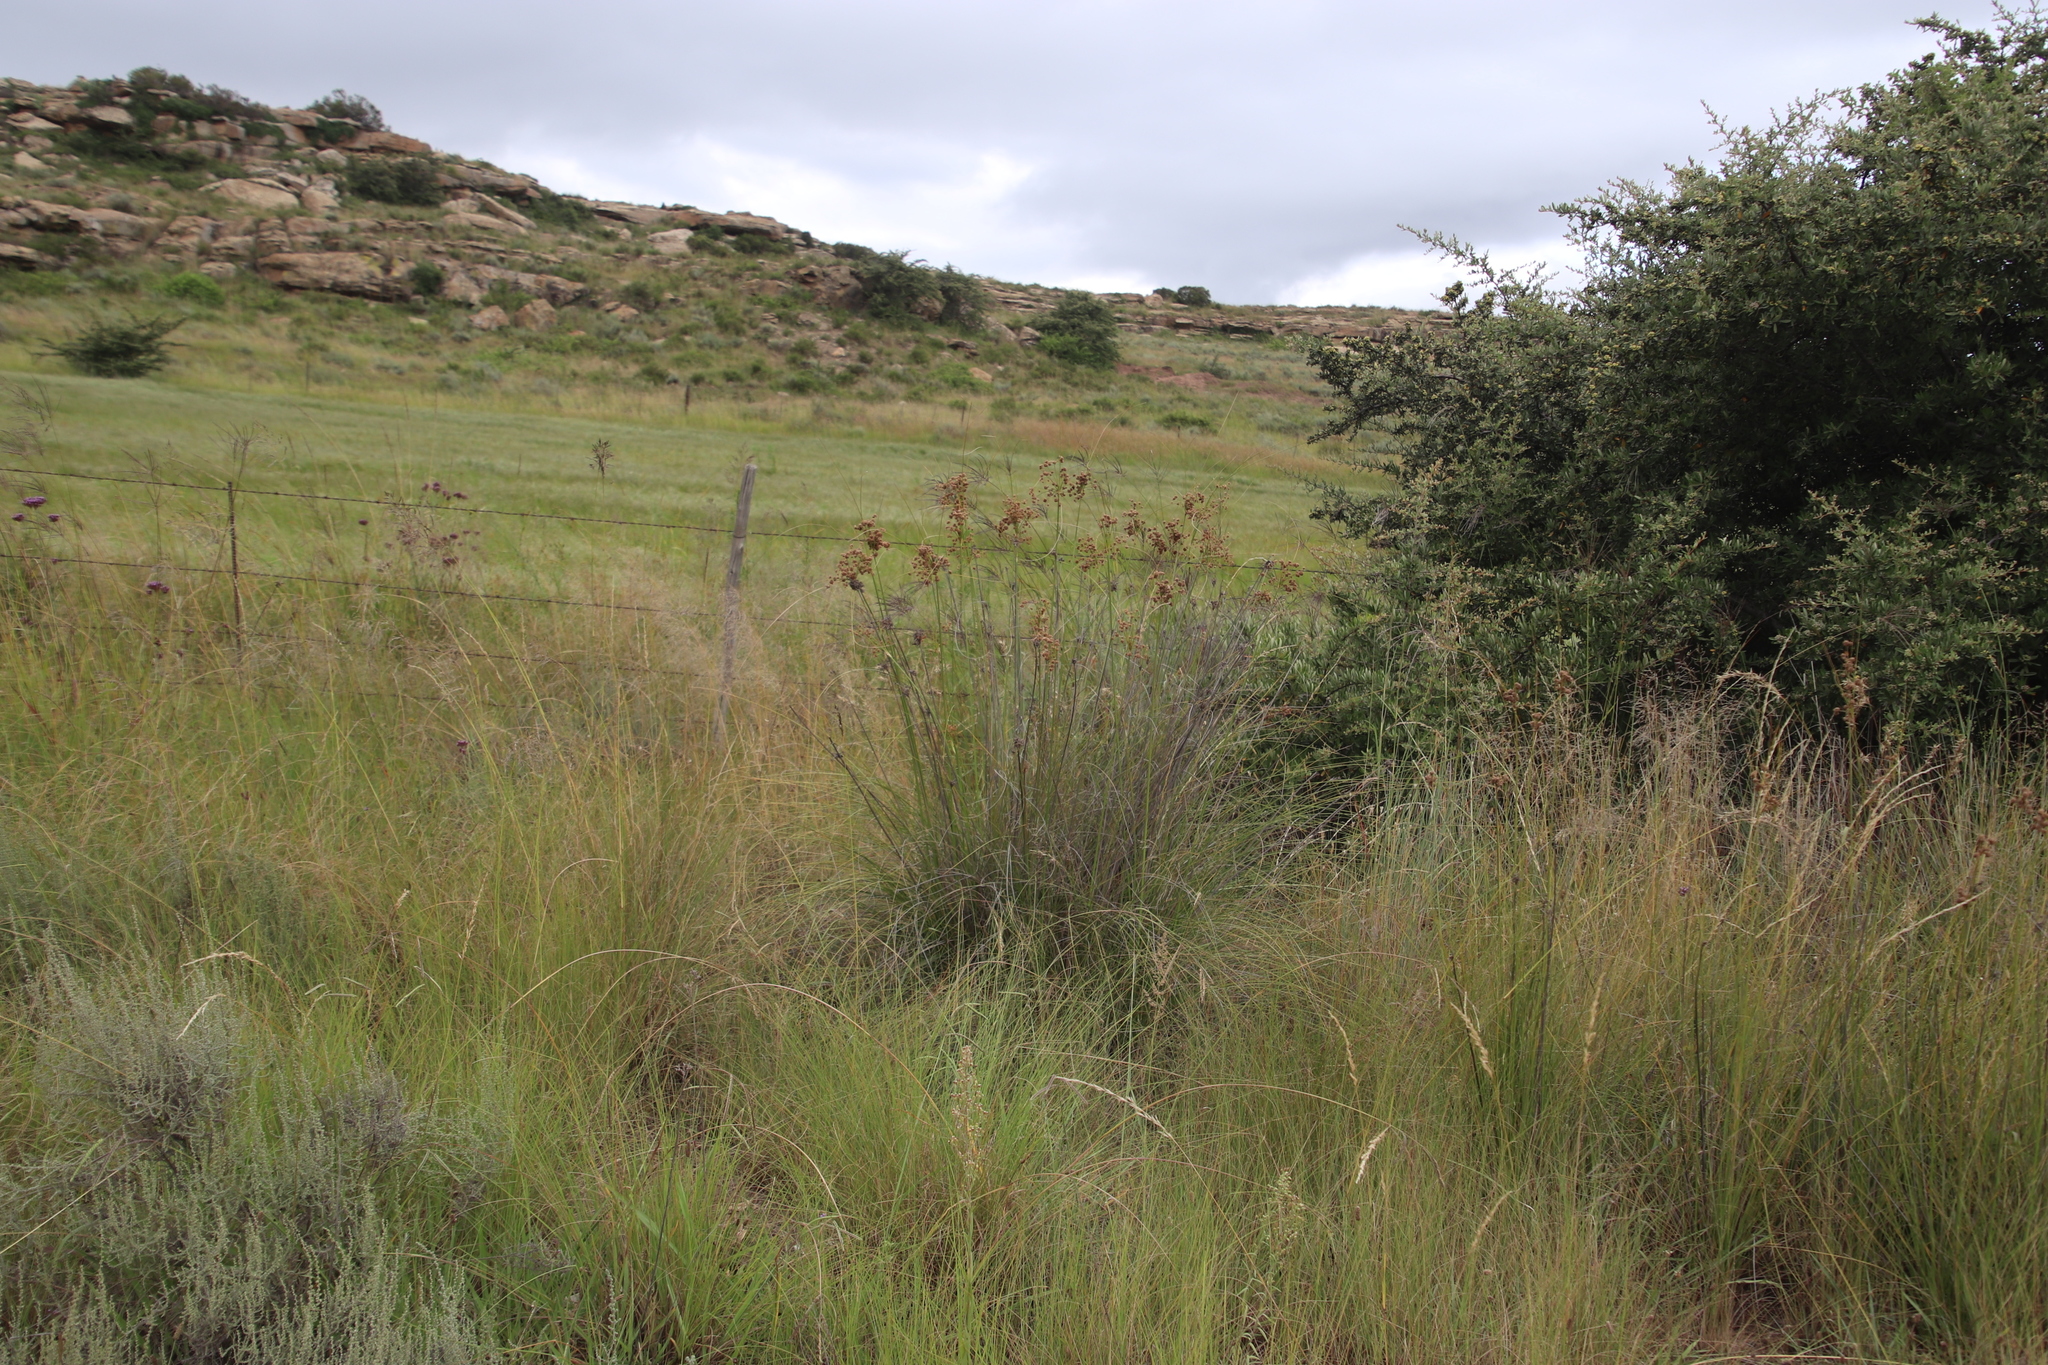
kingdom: Plantae
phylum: Tracheophyta
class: Liliopsida
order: Poales
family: Cyperaceae
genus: Scirpoides
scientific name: Scirpoides burkei
